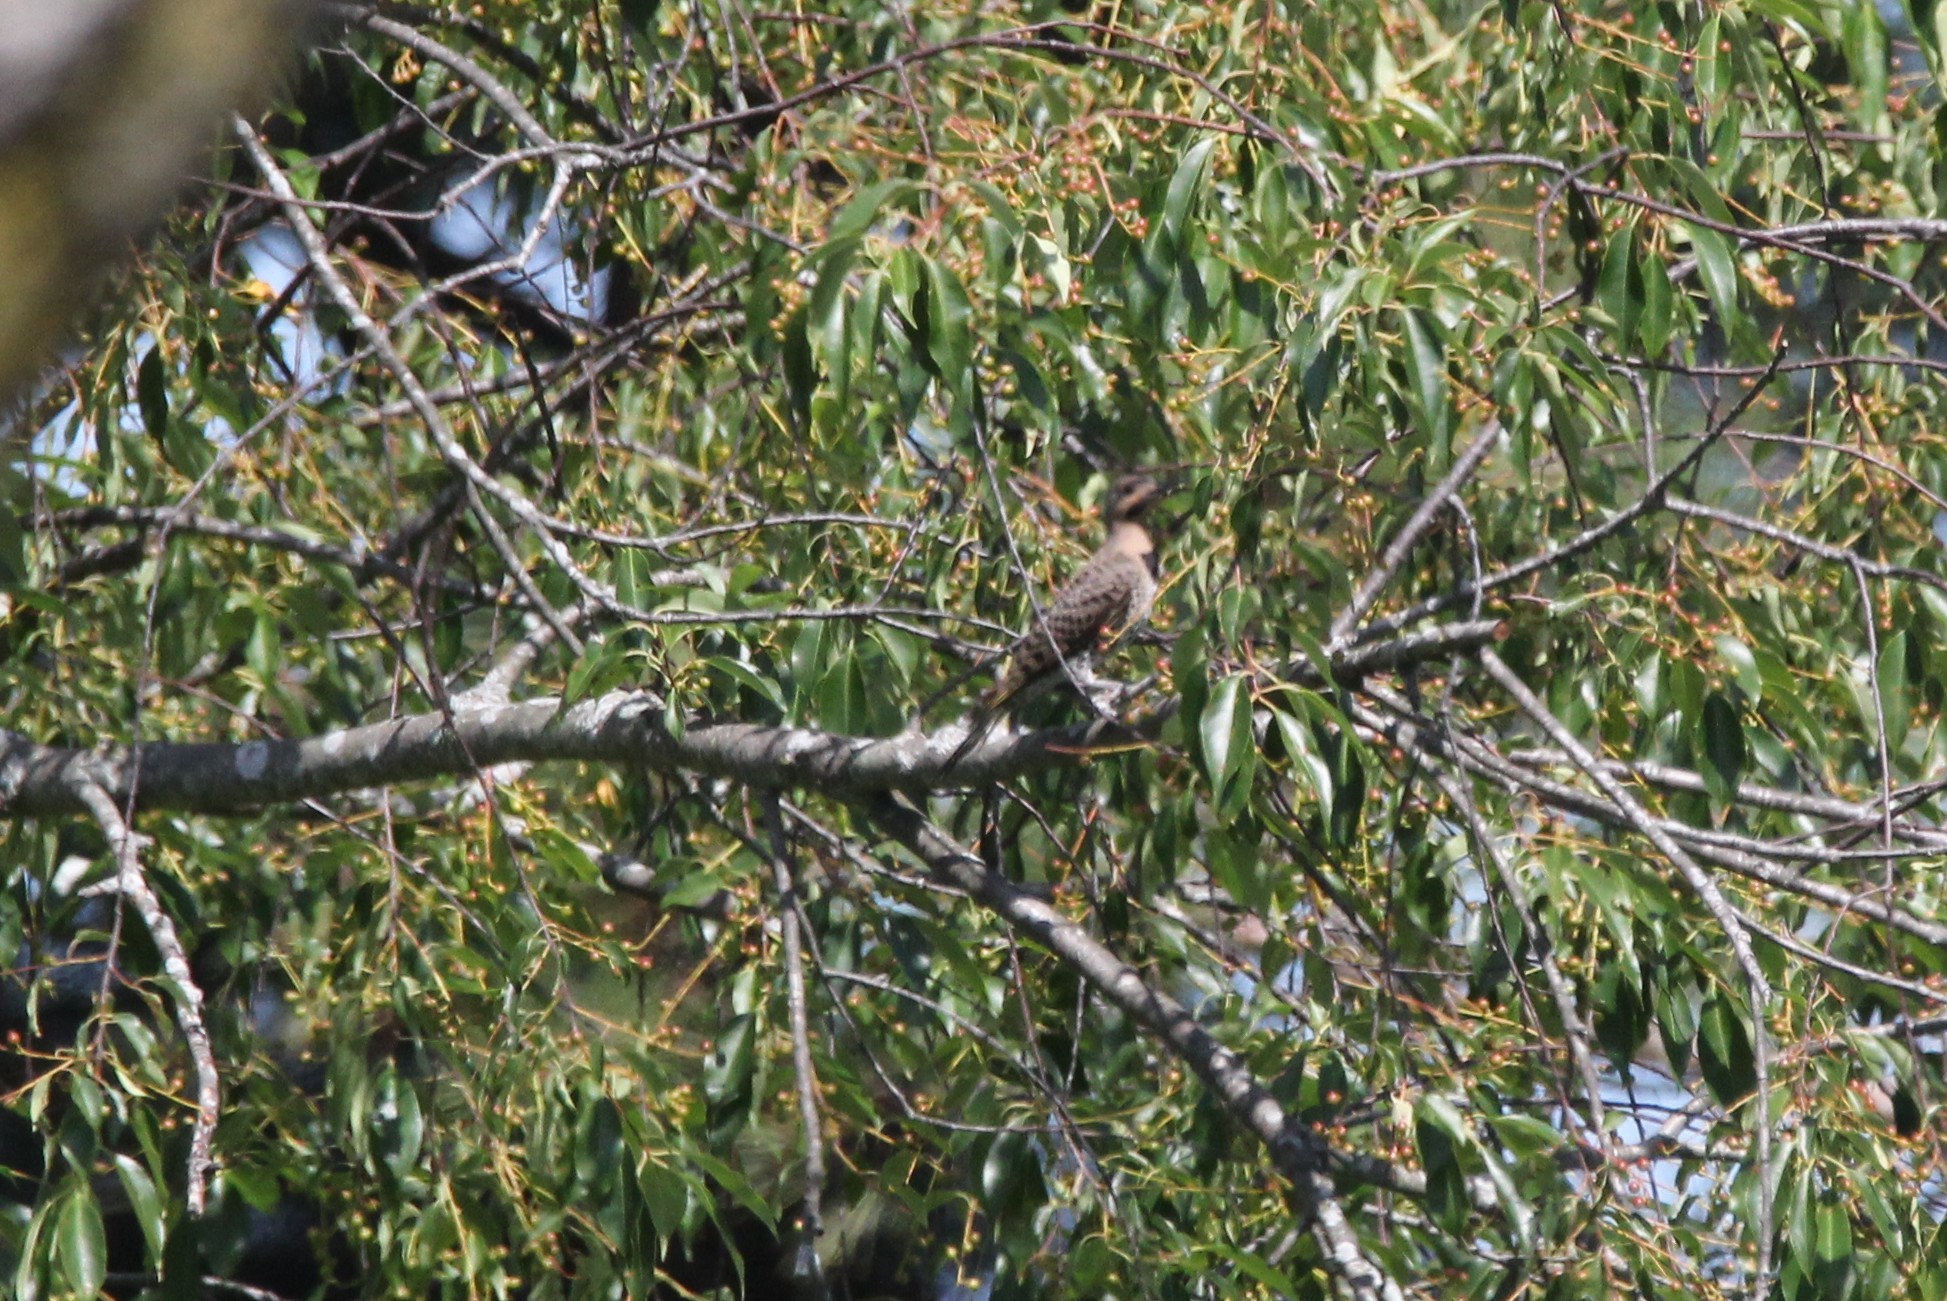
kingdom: Animalia
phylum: Chordata
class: Aves
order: Piciformes
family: Picidae
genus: Colaptes
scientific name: Colaptes auratus
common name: Northern flicker
